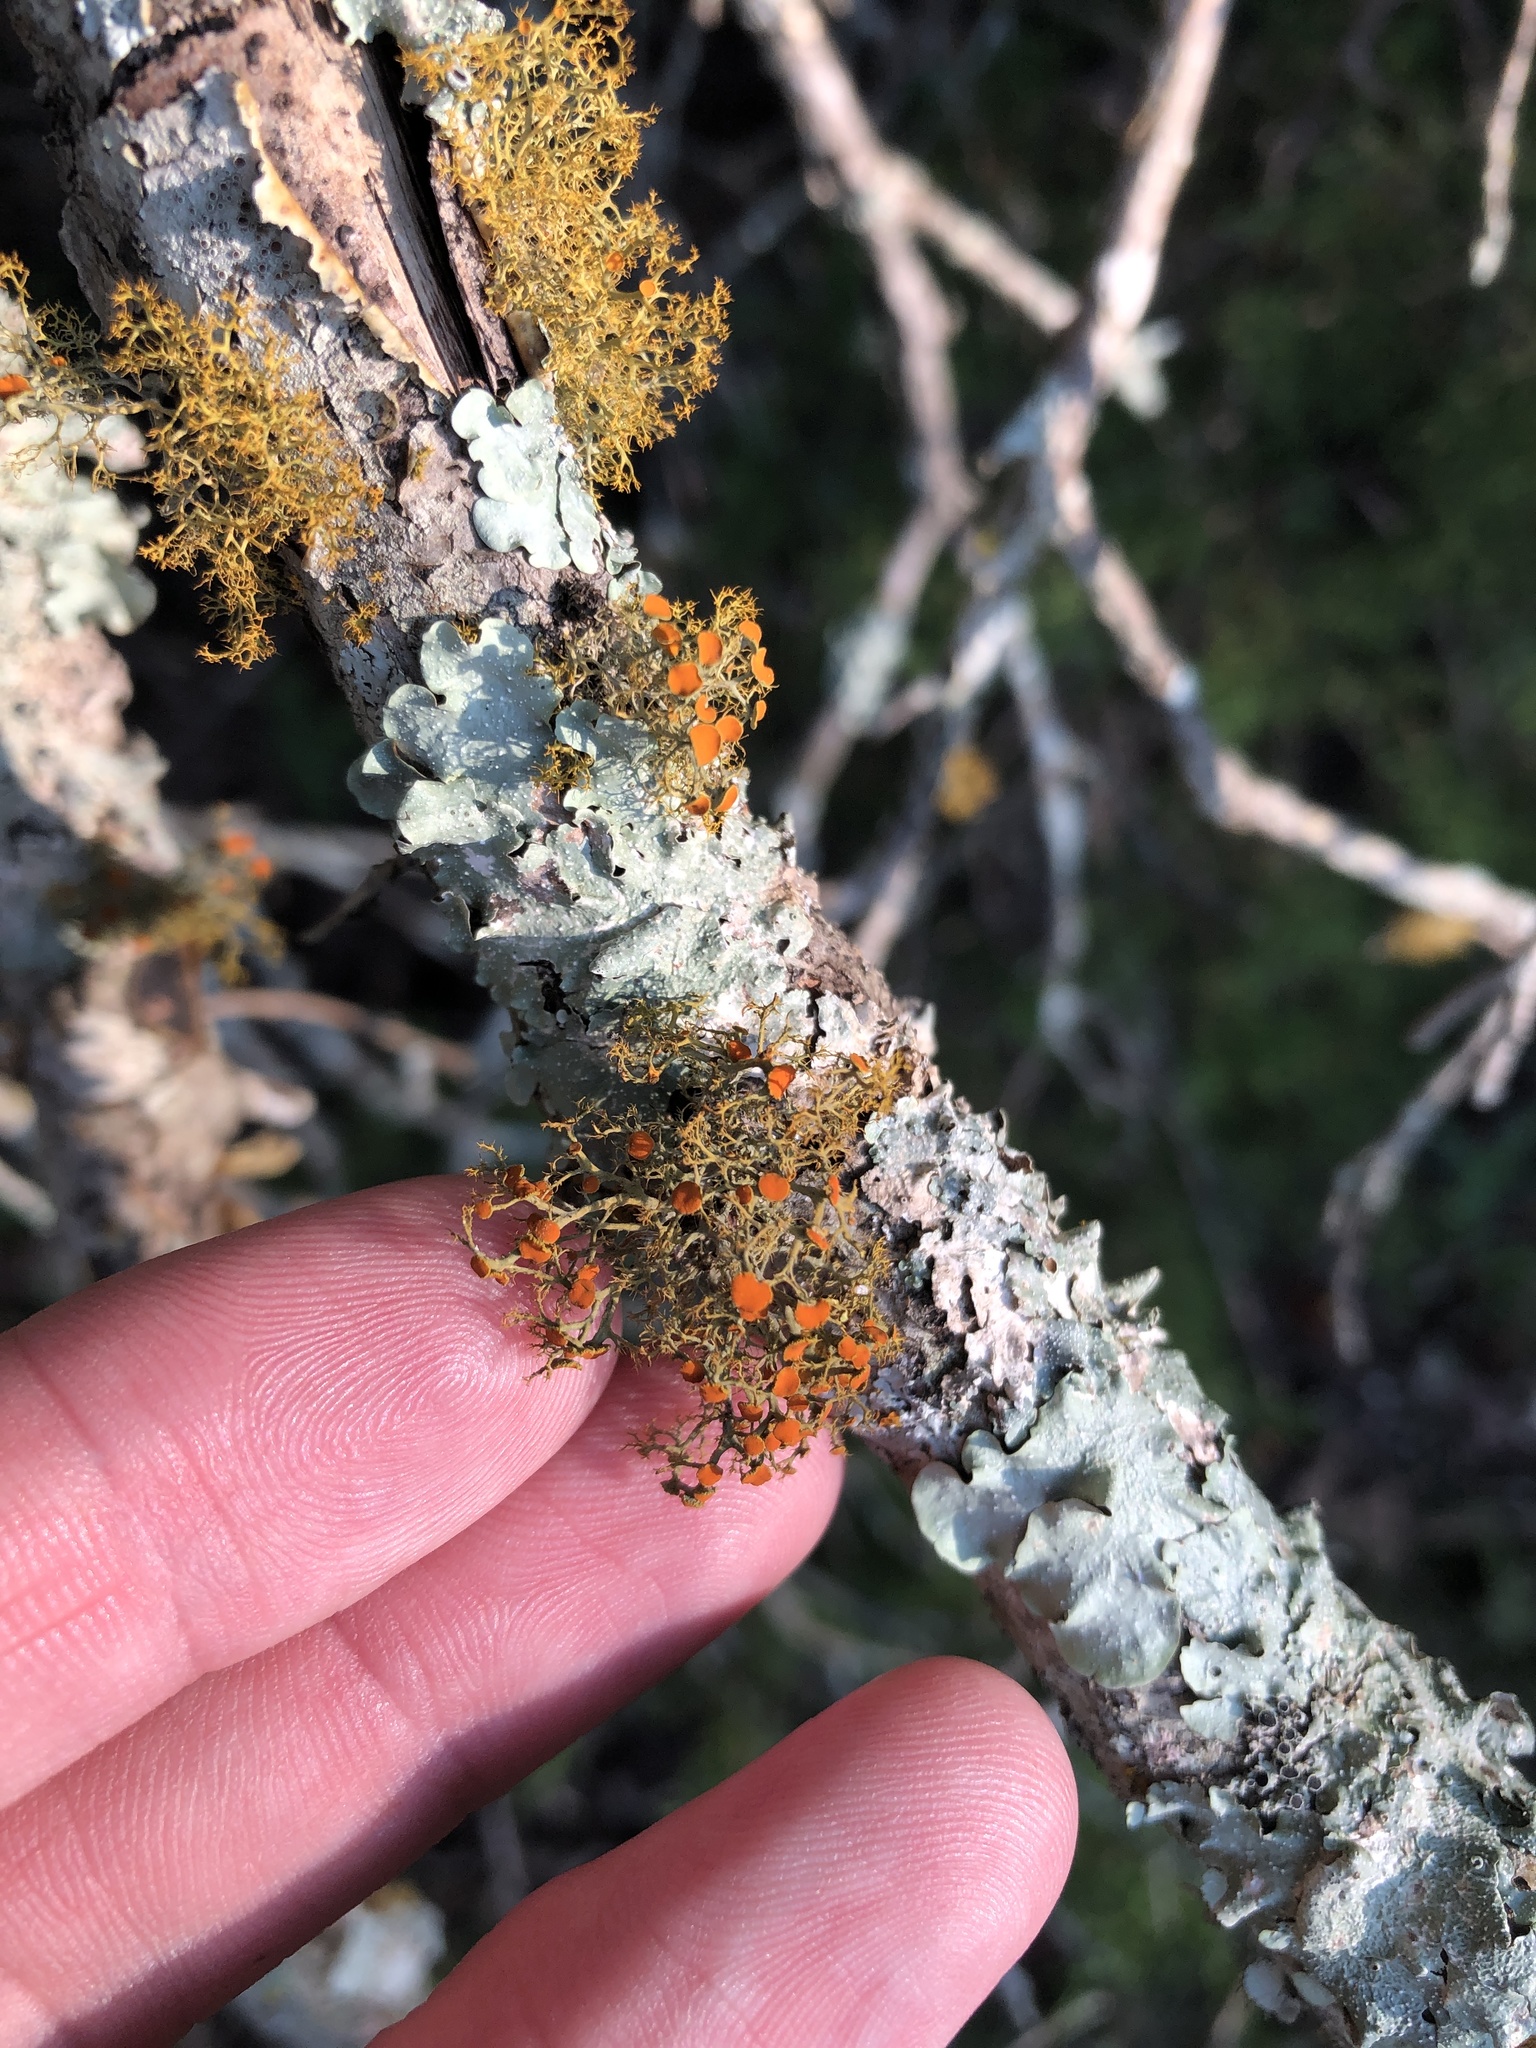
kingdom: Fungi
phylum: Ascomycota
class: Lecanoromycetes
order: Teloschistales
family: Teloschistaceae
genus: Teloschistes
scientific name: Teloschistes exilis
